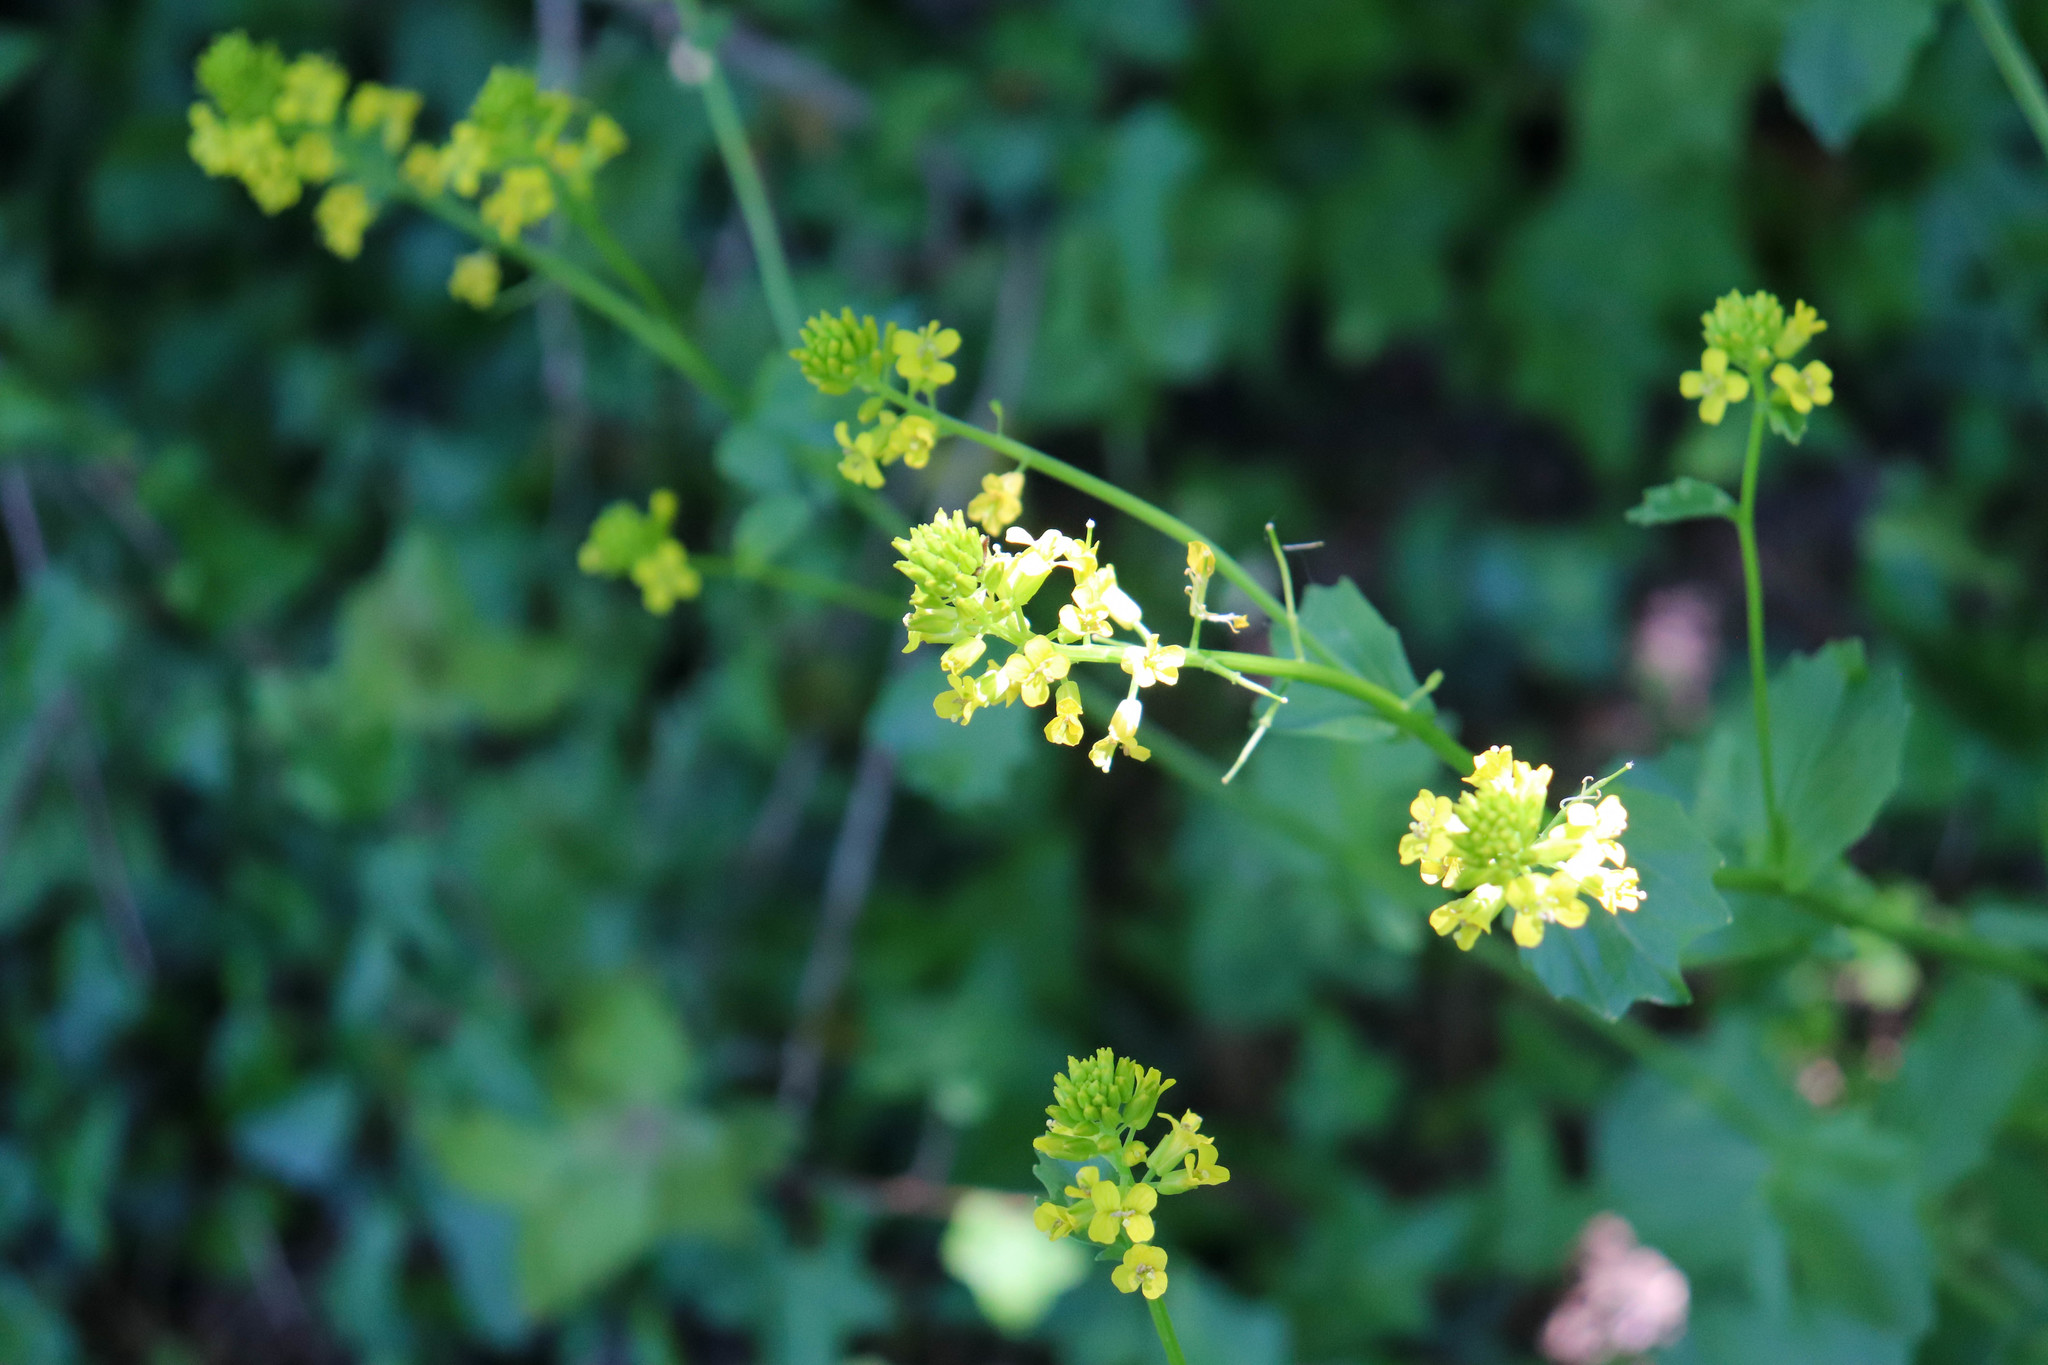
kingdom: Plantae
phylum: Tracheophyta
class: Magnoliopsida
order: Brassicales
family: Brassicaceae
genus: Barbarea
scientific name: Barbarea vulgaris
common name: Cressy-greens
